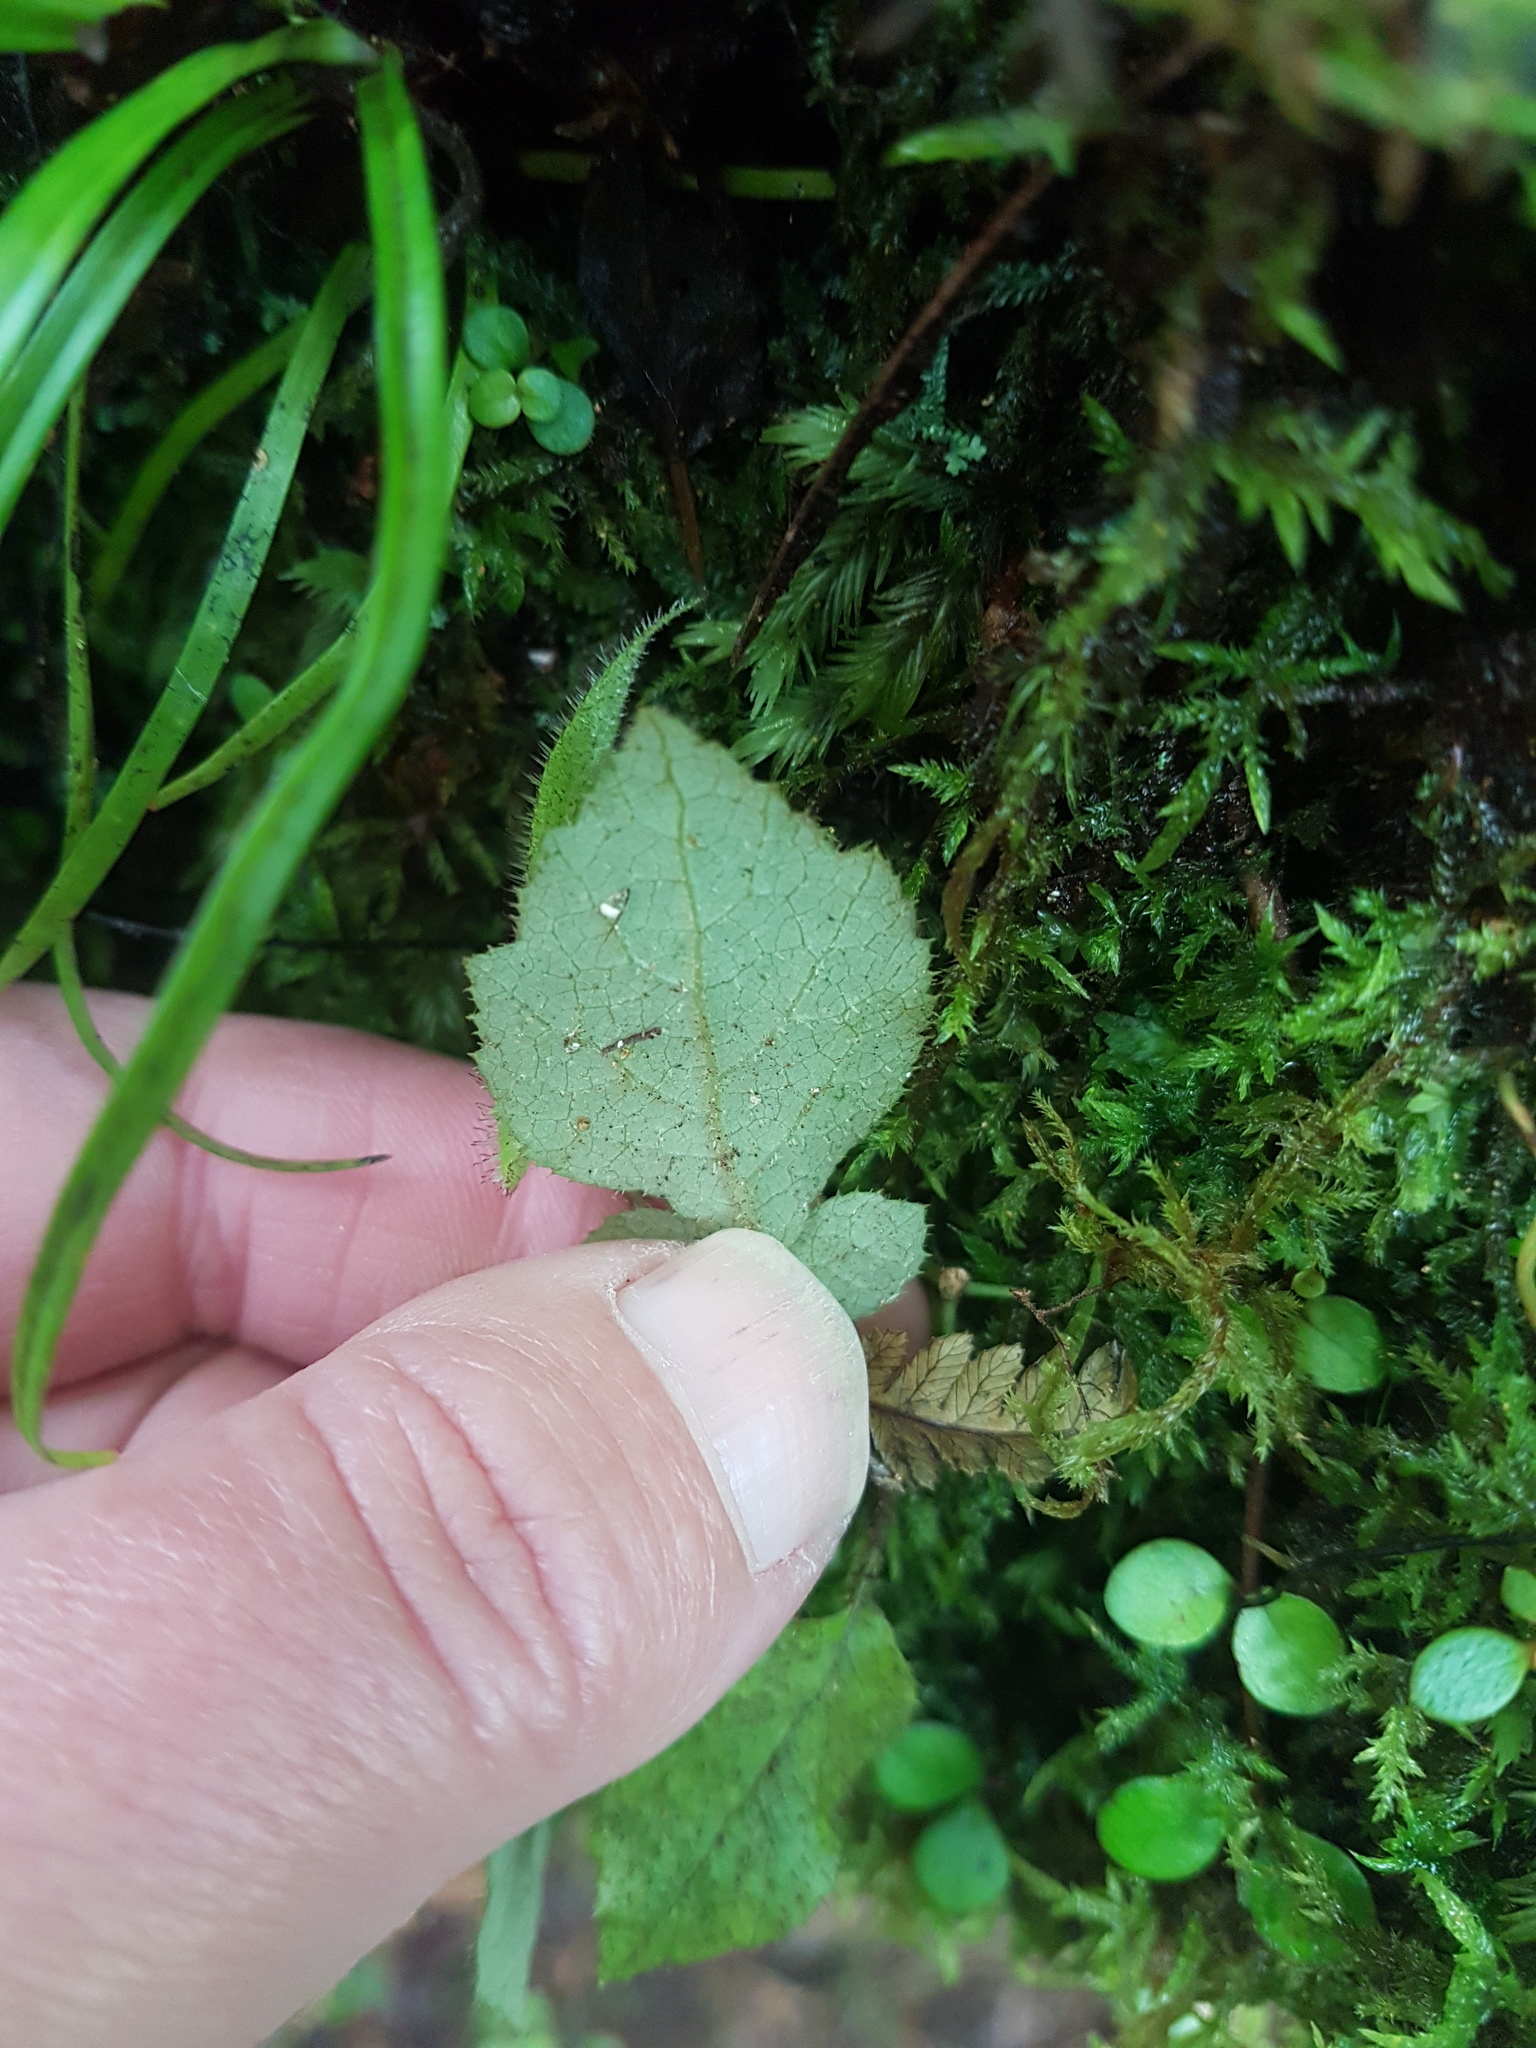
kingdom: Plantae
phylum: Tracheophyta
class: Magnoliopsida
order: Apiales
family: Araliaceae
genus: Schefflera
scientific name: Schefflera digitata
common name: Pate
